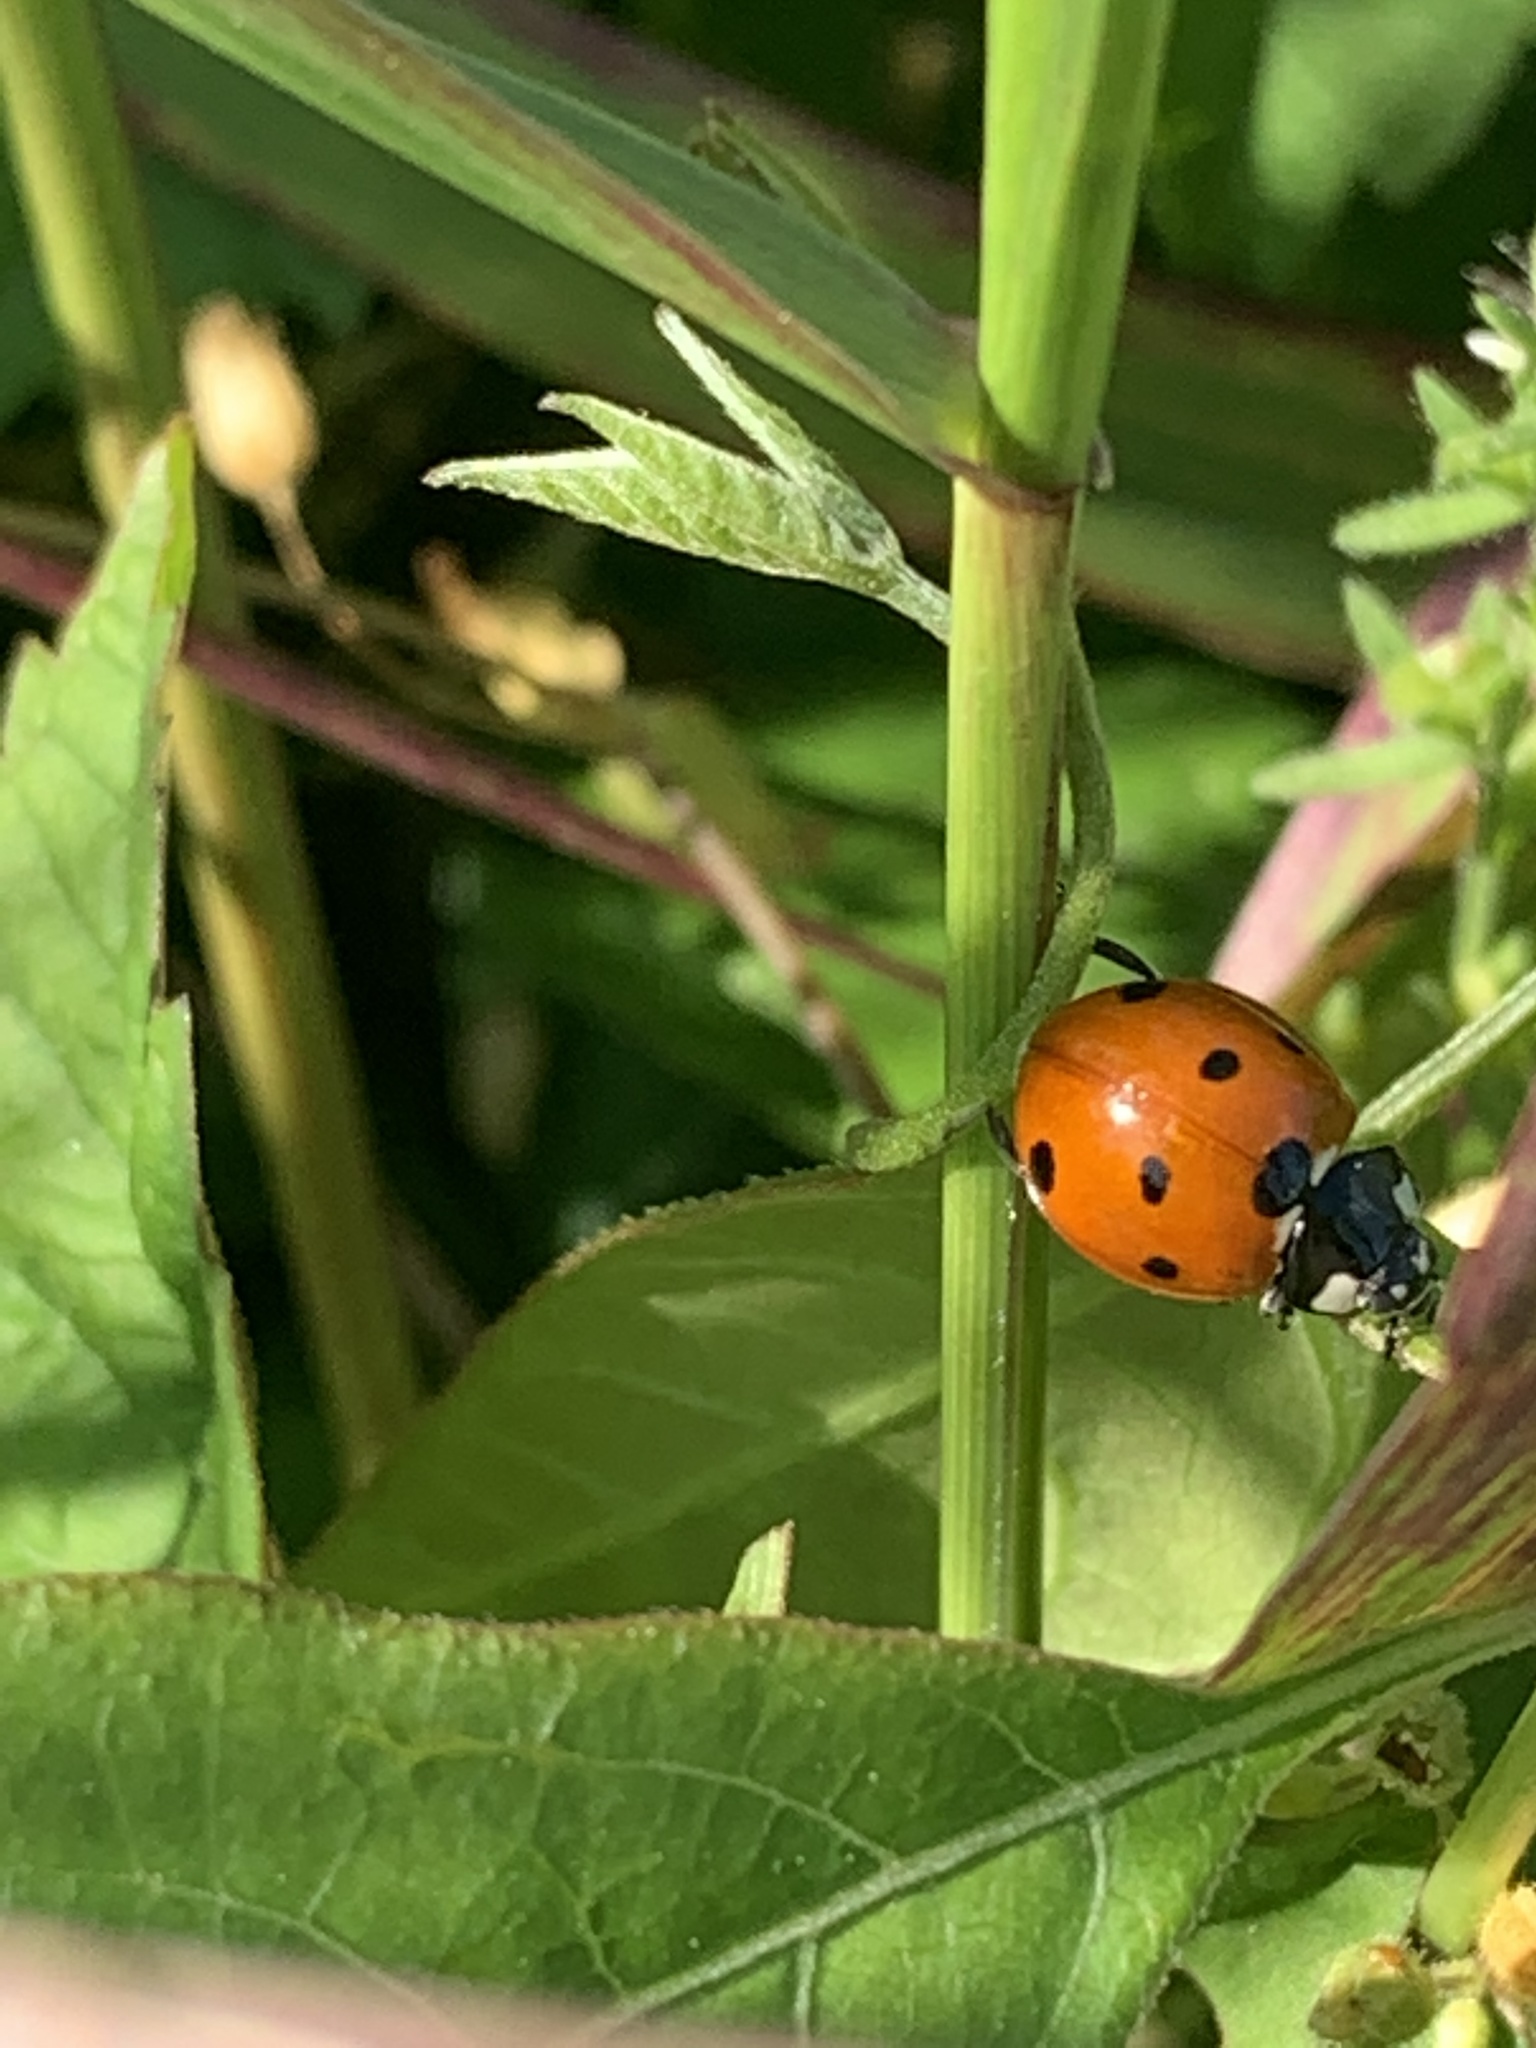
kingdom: Animalia
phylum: Arthropoda
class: Insecta
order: Coleoptera
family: Coccinellidae
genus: Coccinella
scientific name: Coccinella septempunctata
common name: Sevenspotted lady beetle
